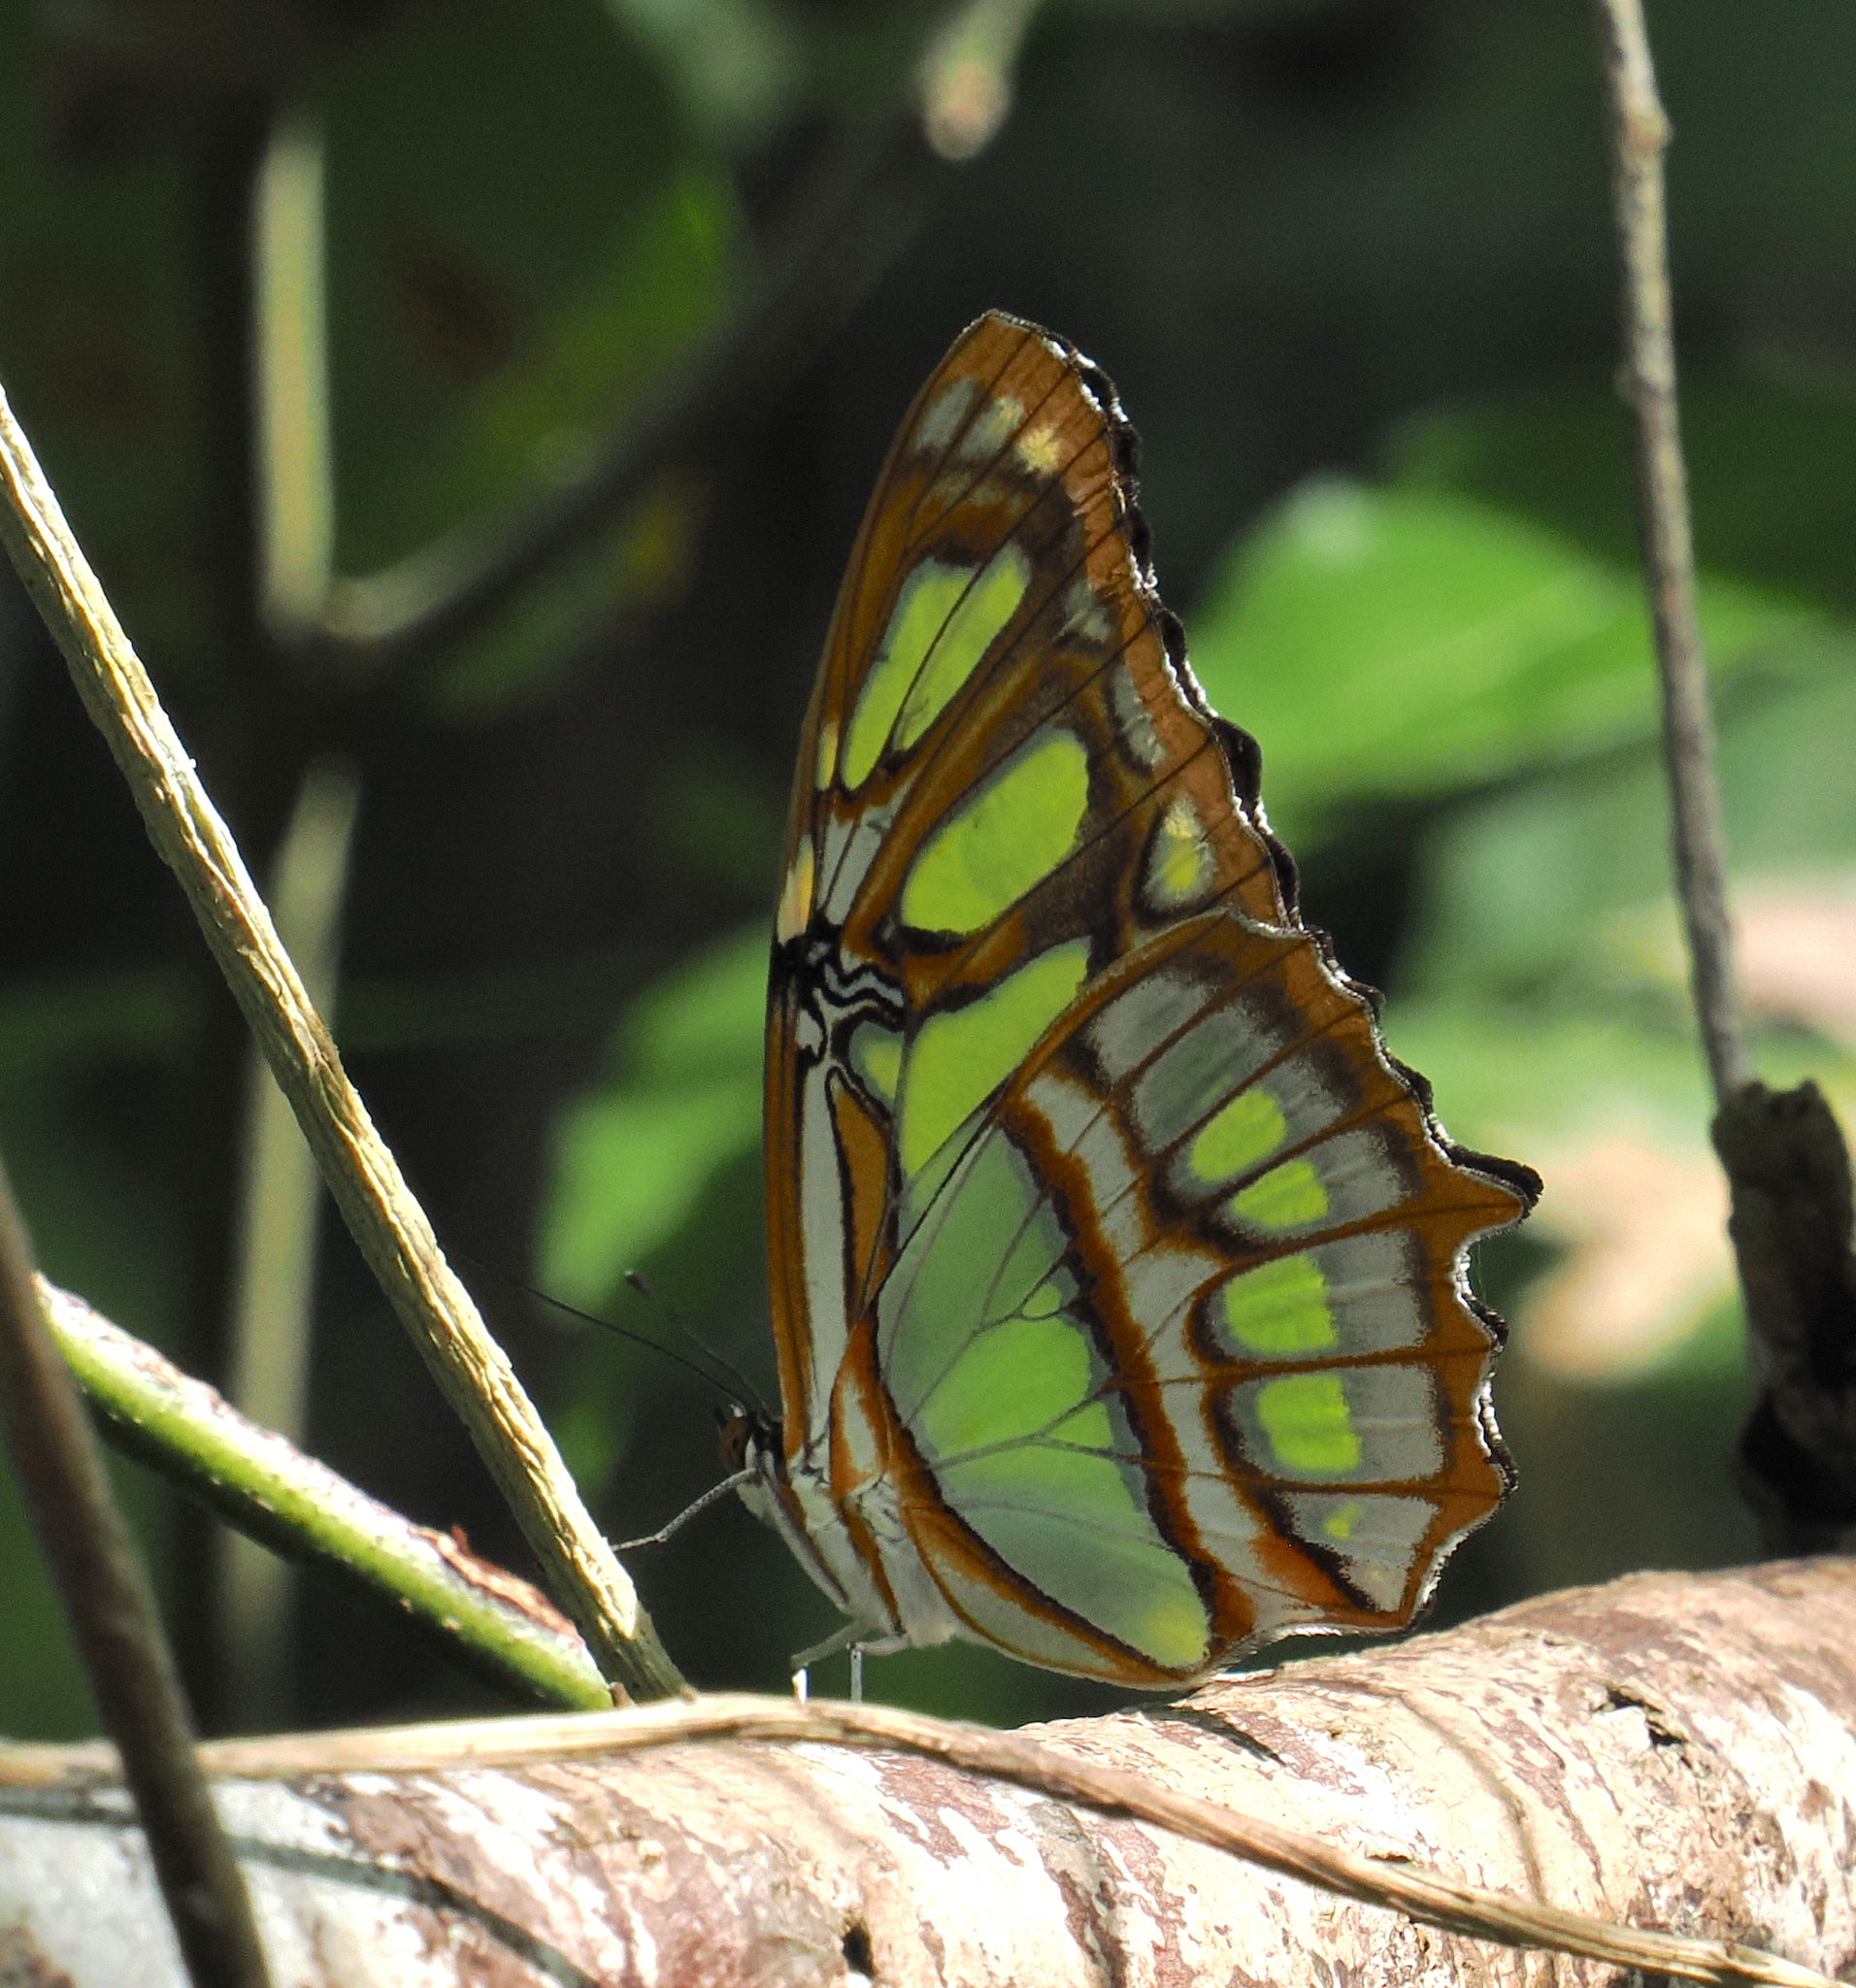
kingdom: Animalia
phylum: Arthropoda
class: Insecta
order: Lepidoptera
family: Nymphalidae
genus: Siproeta
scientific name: Siproeta stelenes
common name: Malachite
